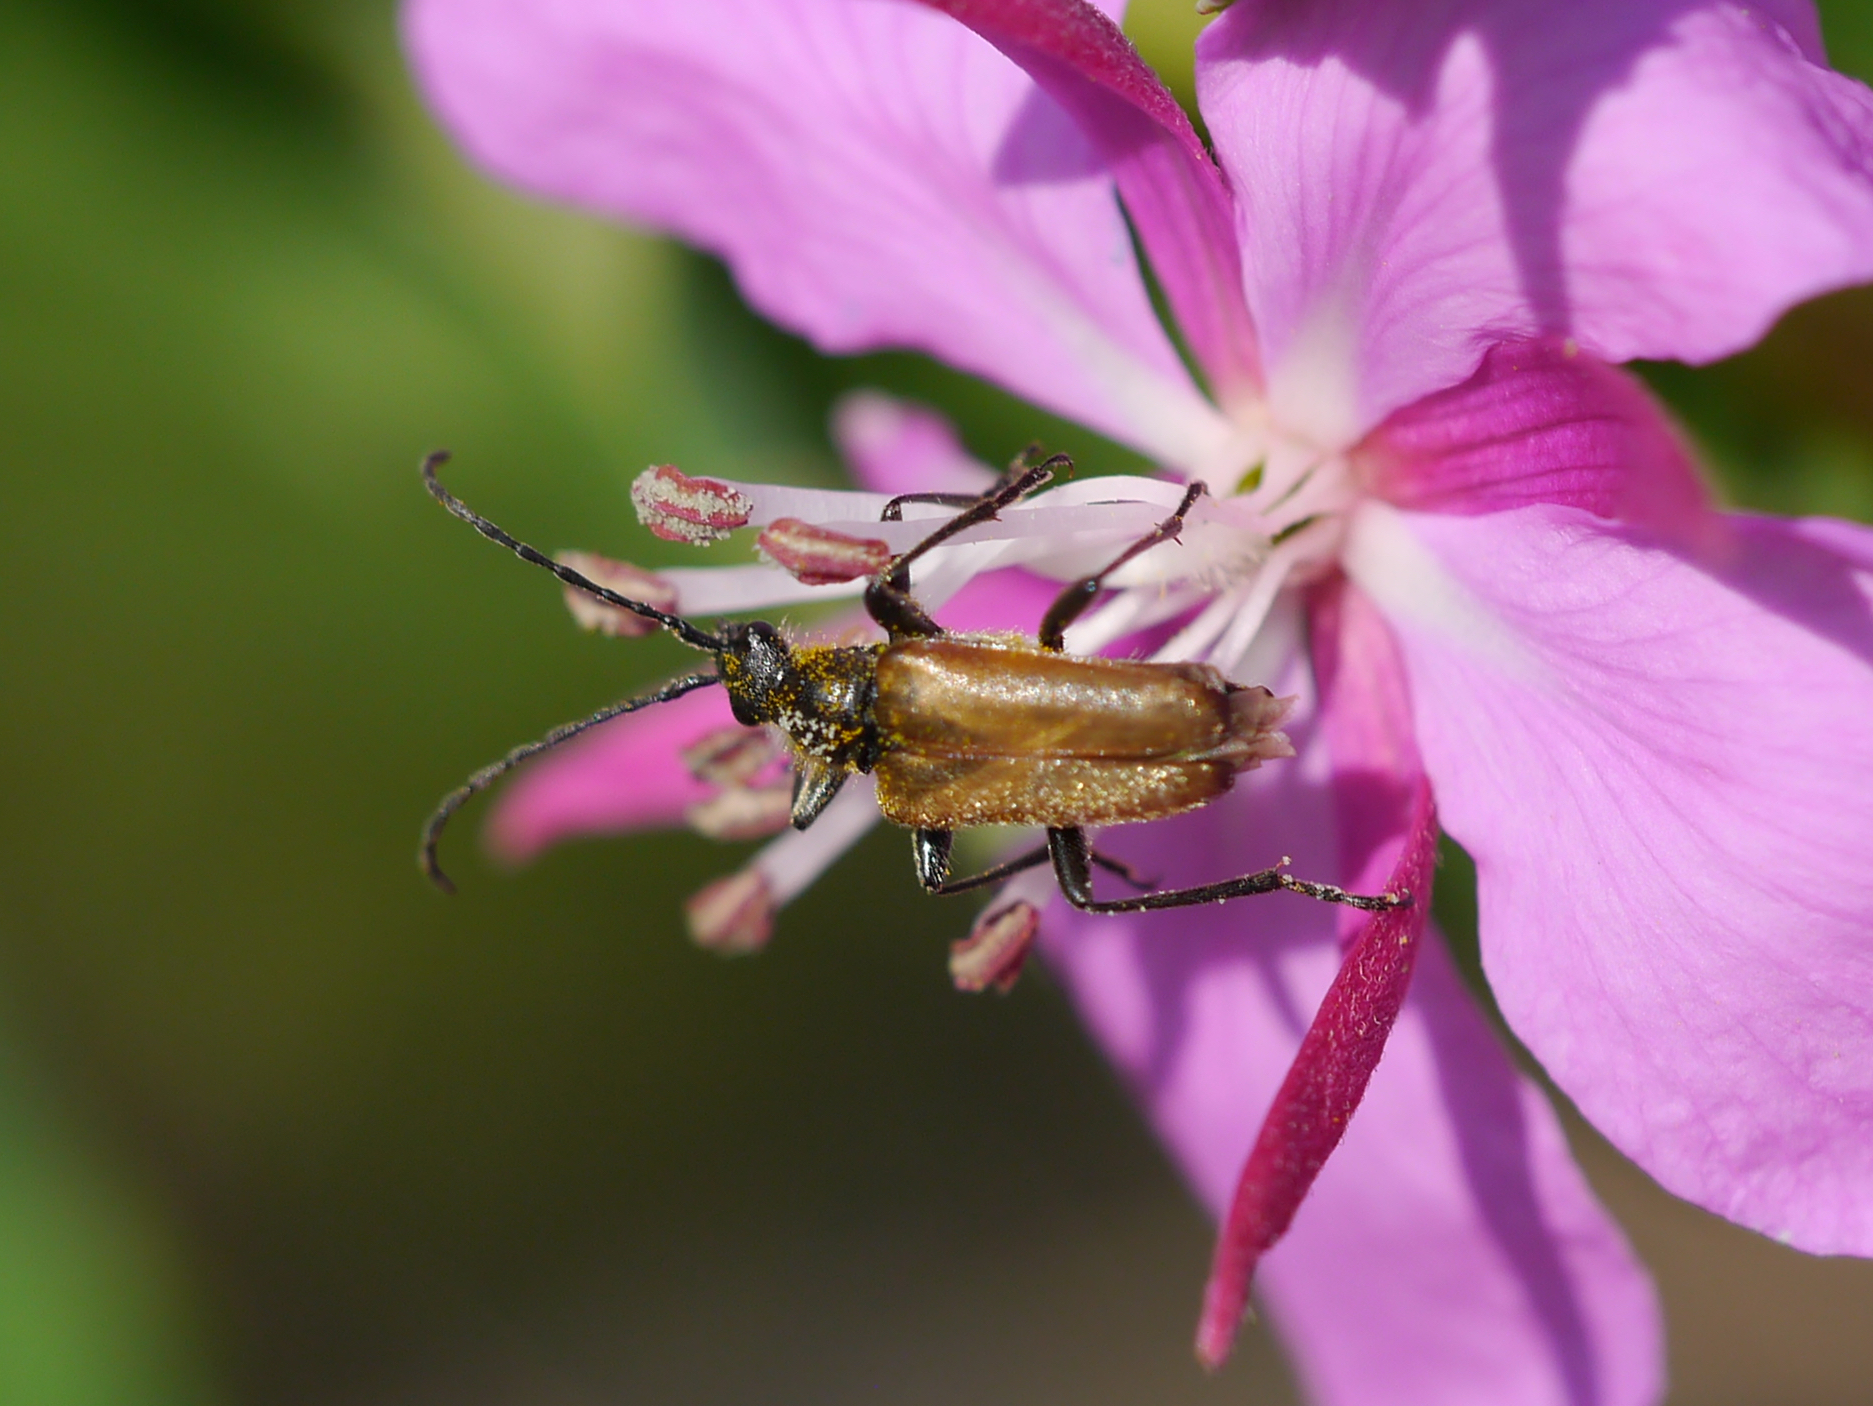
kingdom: Animalia
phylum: Arthropoda
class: Insecta
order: Coleoptera
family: Cerambycidae
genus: Gnathacmaeops
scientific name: Gnathacmaeops pratensis
